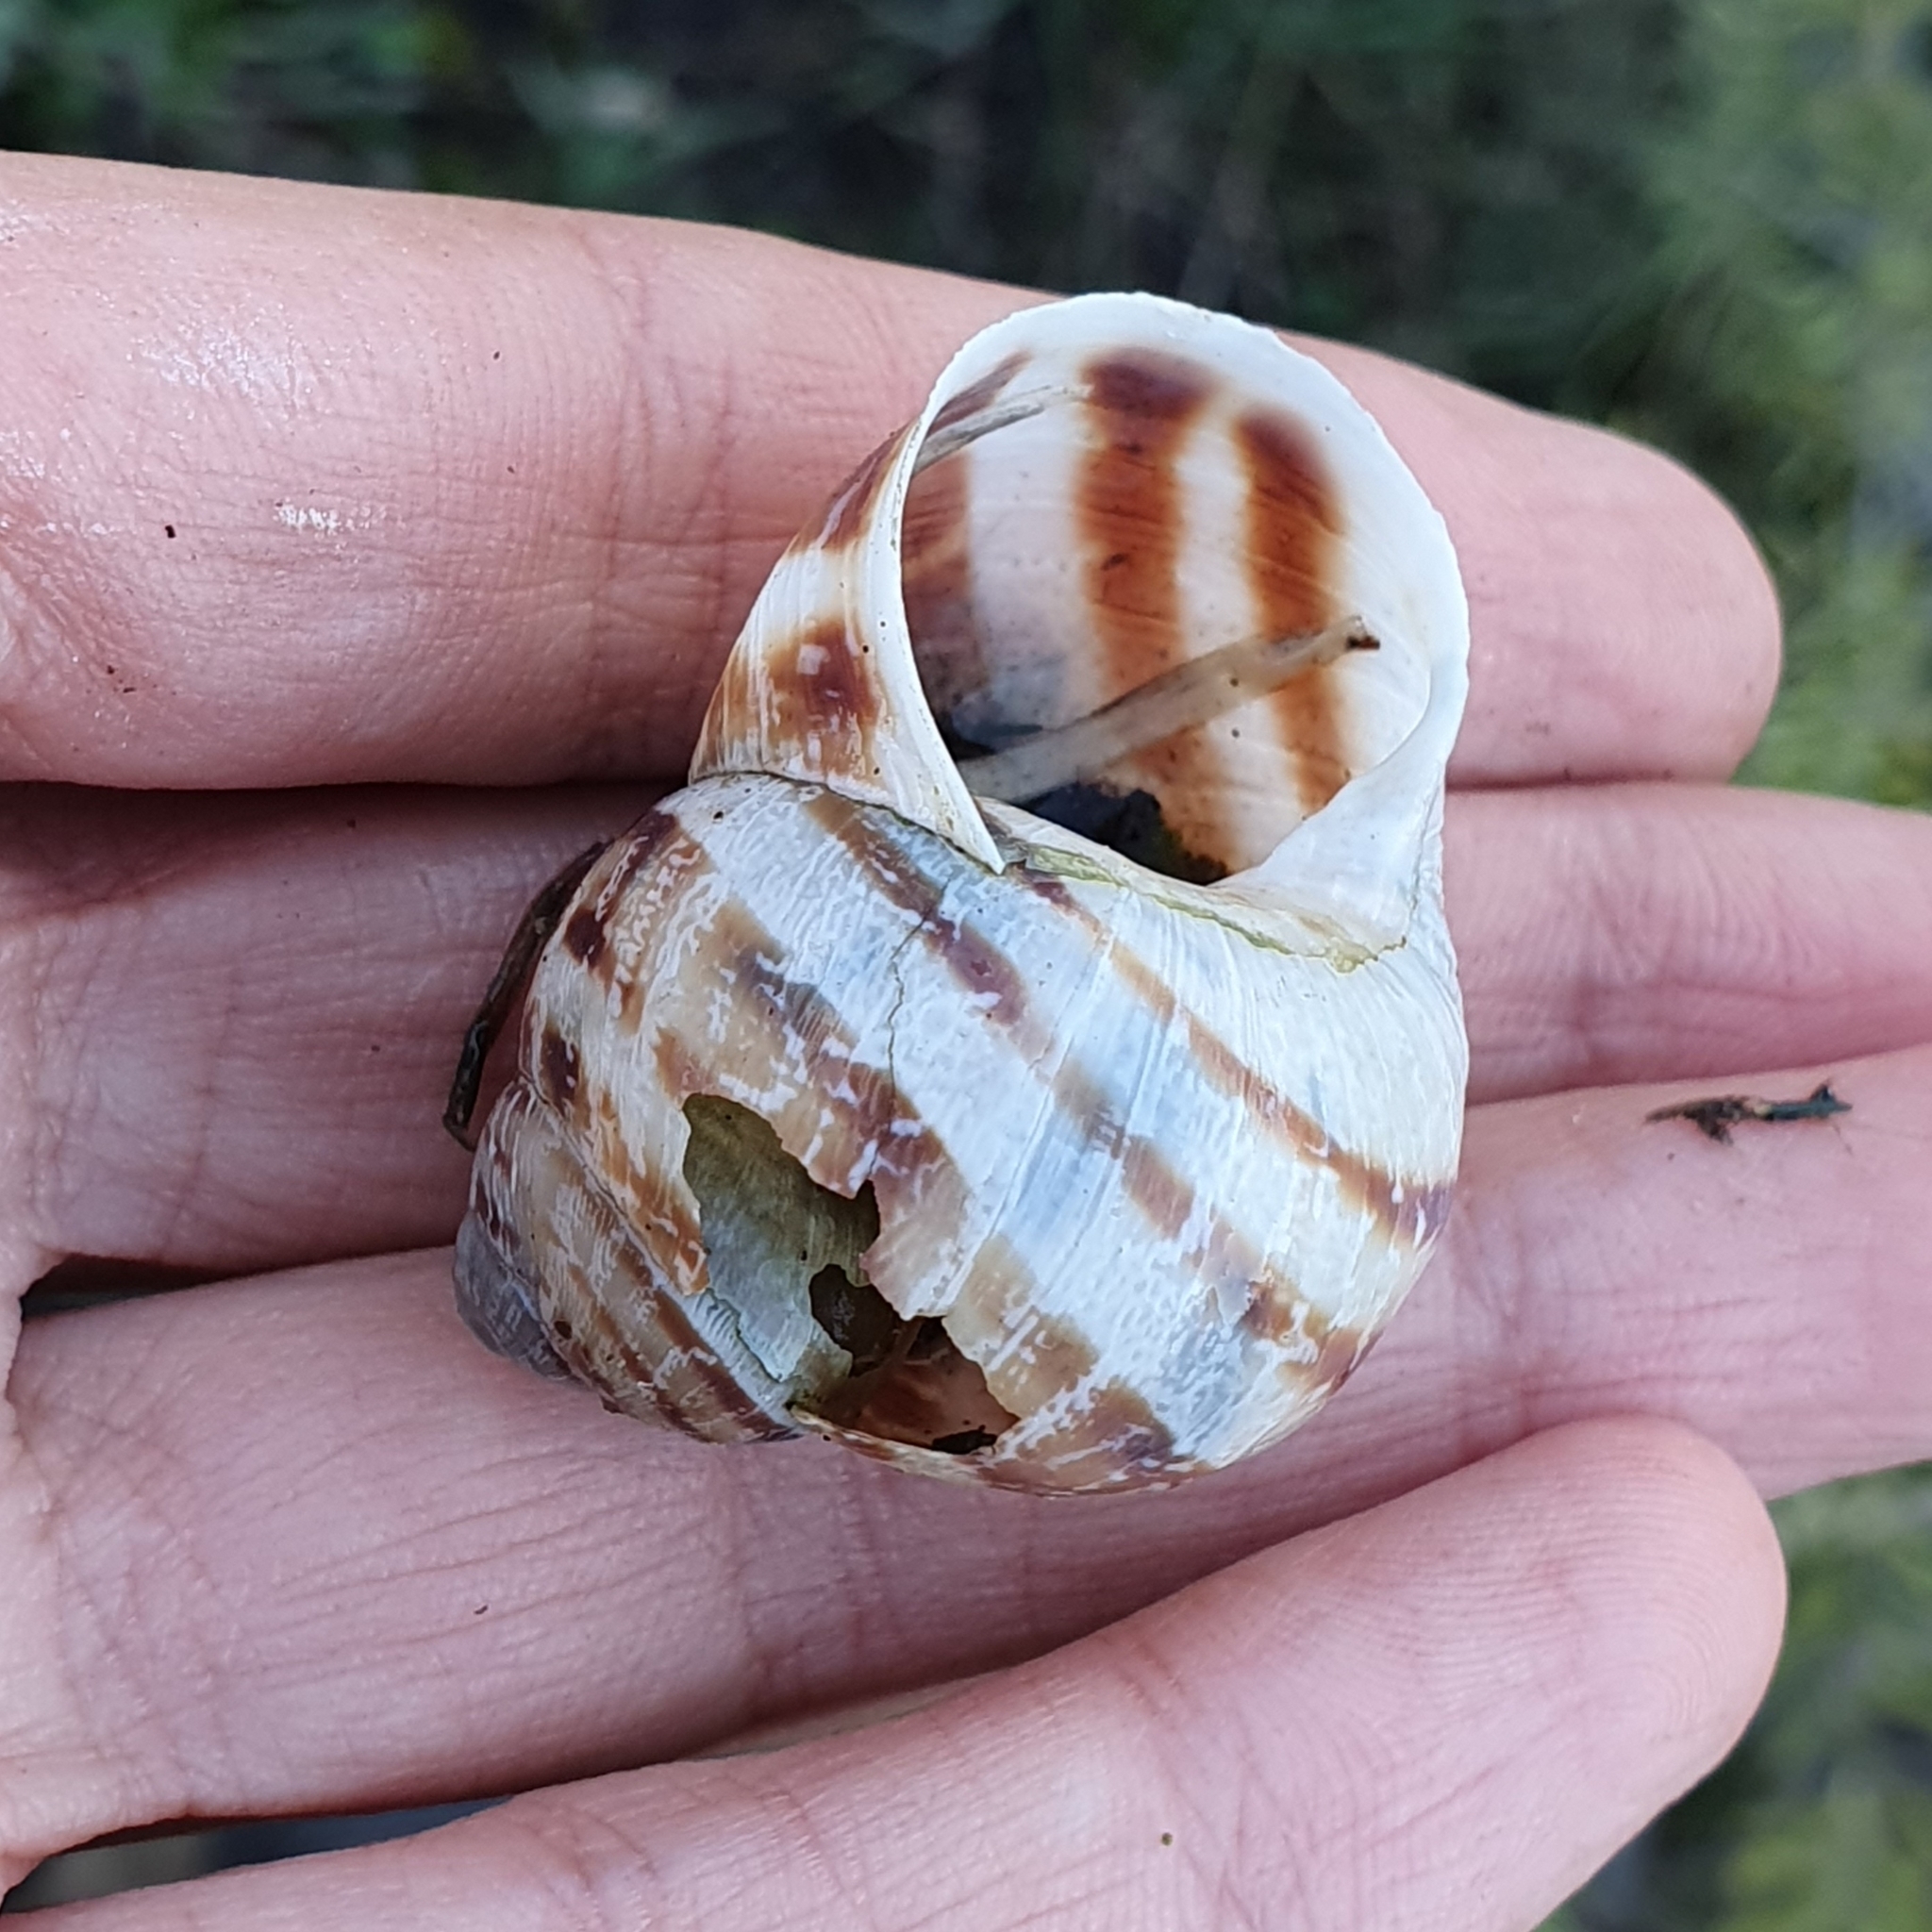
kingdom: Animalia
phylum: Mollusca
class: Gastropoda
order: Stylommatophora
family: Helicidae
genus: Cornu
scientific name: Cornu aspersum
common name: Brown garden snail
